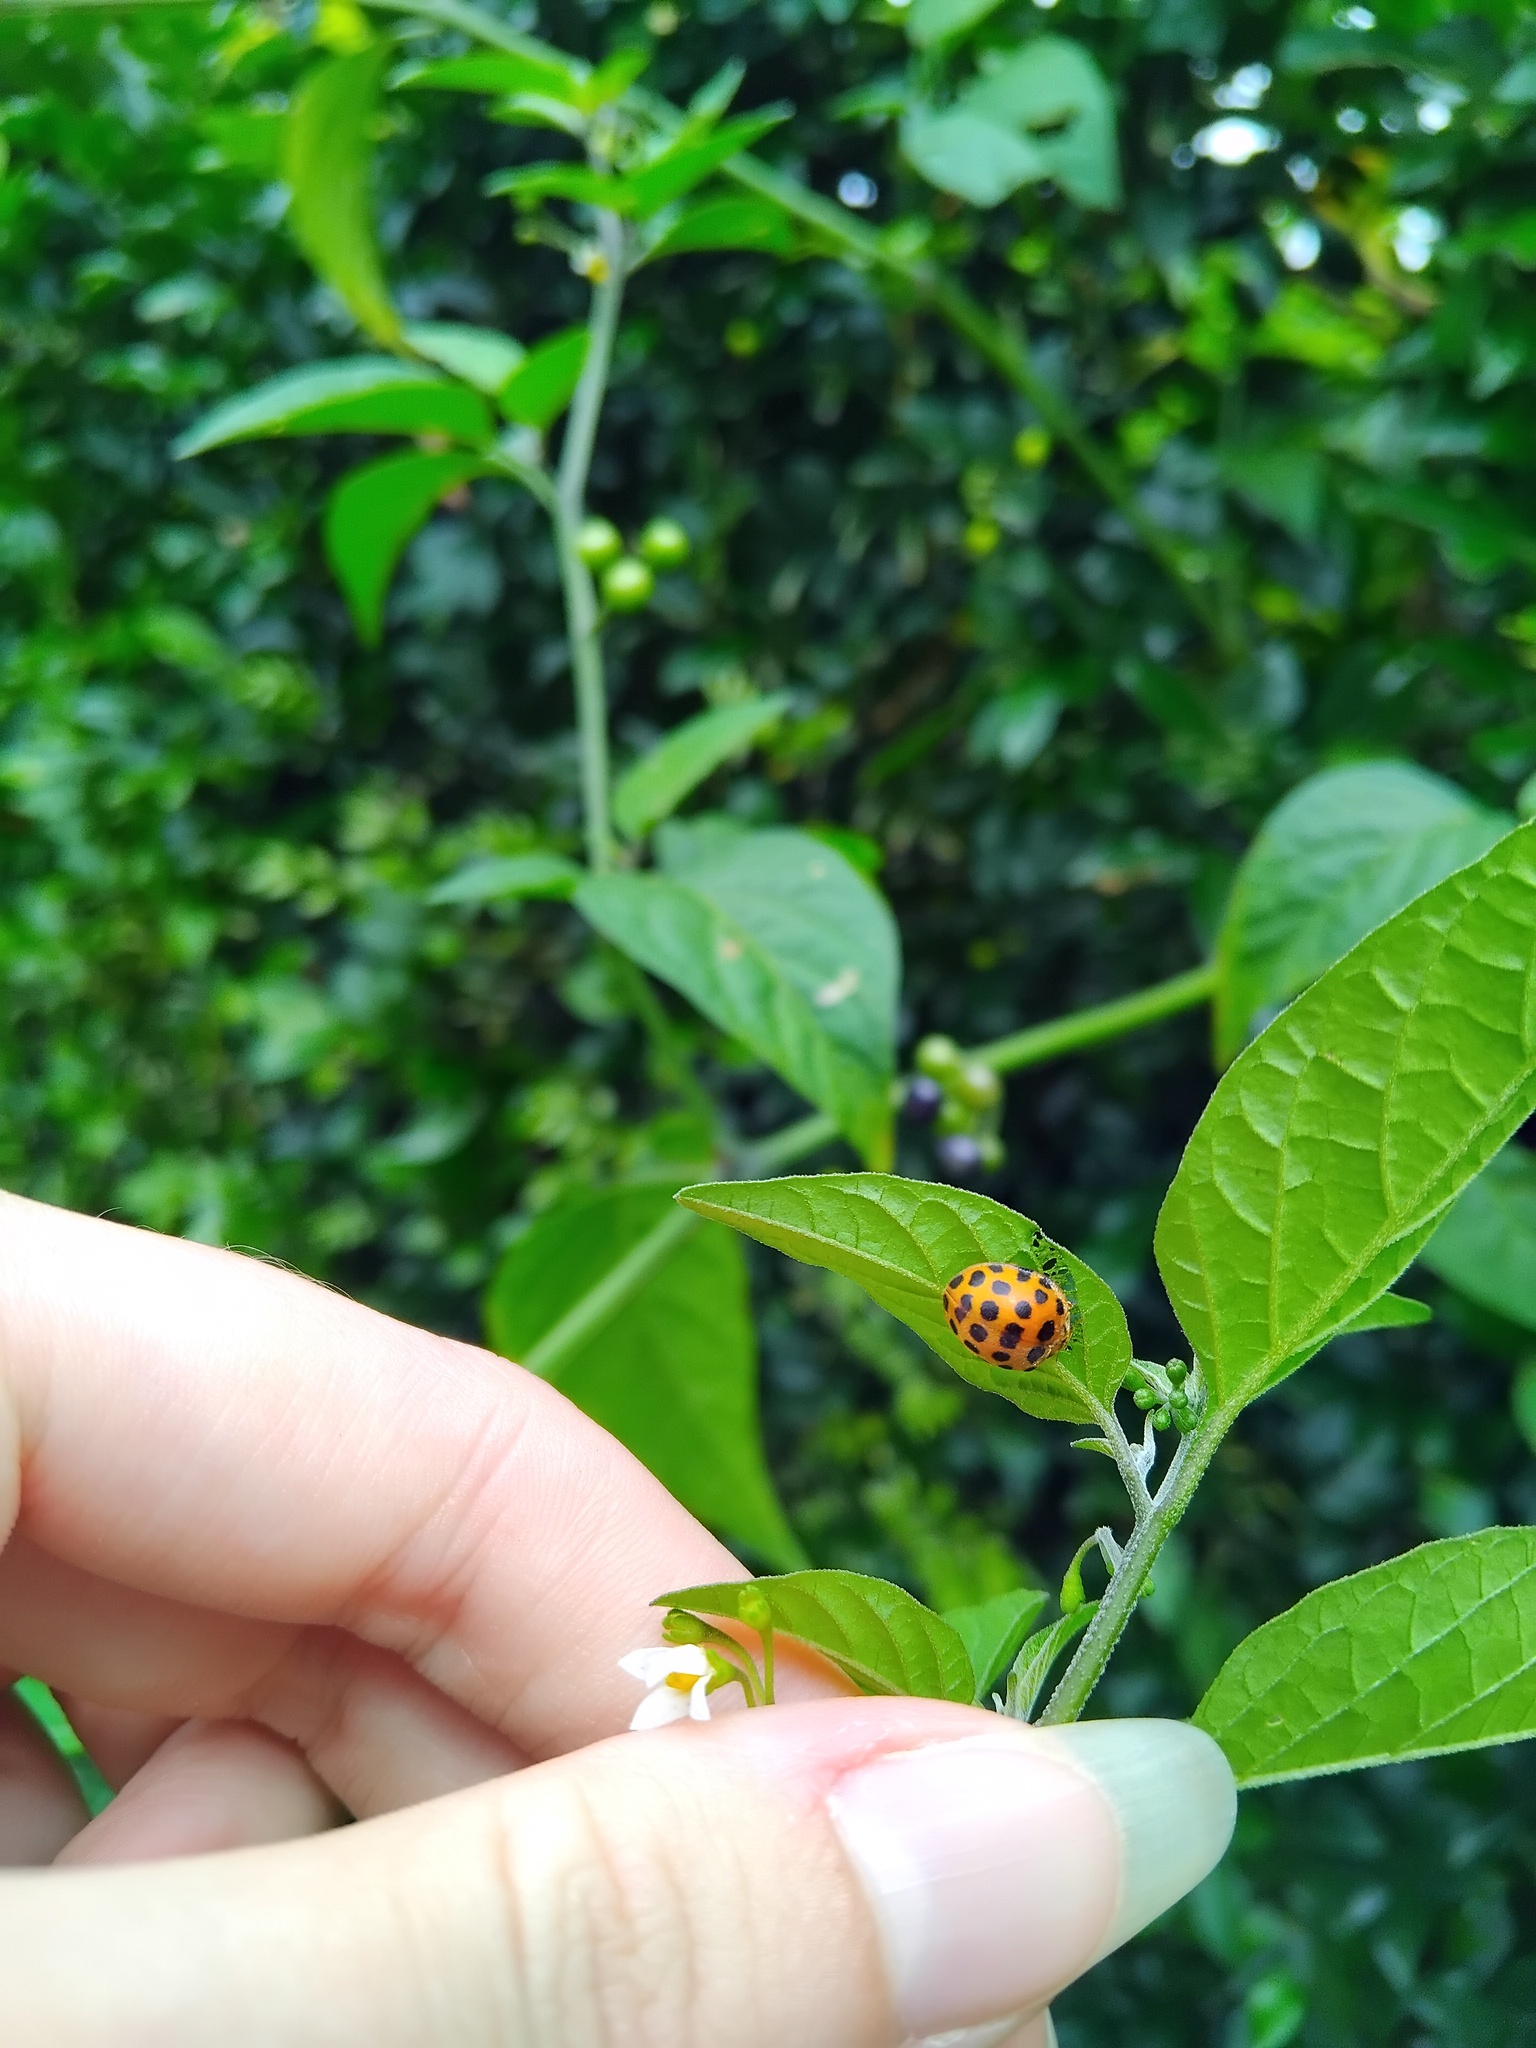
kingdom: Animalia
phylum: Arthropoda
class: Insecta
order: Coleoptera
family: Coccinellidae
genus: Henosepilachna
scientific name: Henosepilachna vigintioctopunctata
